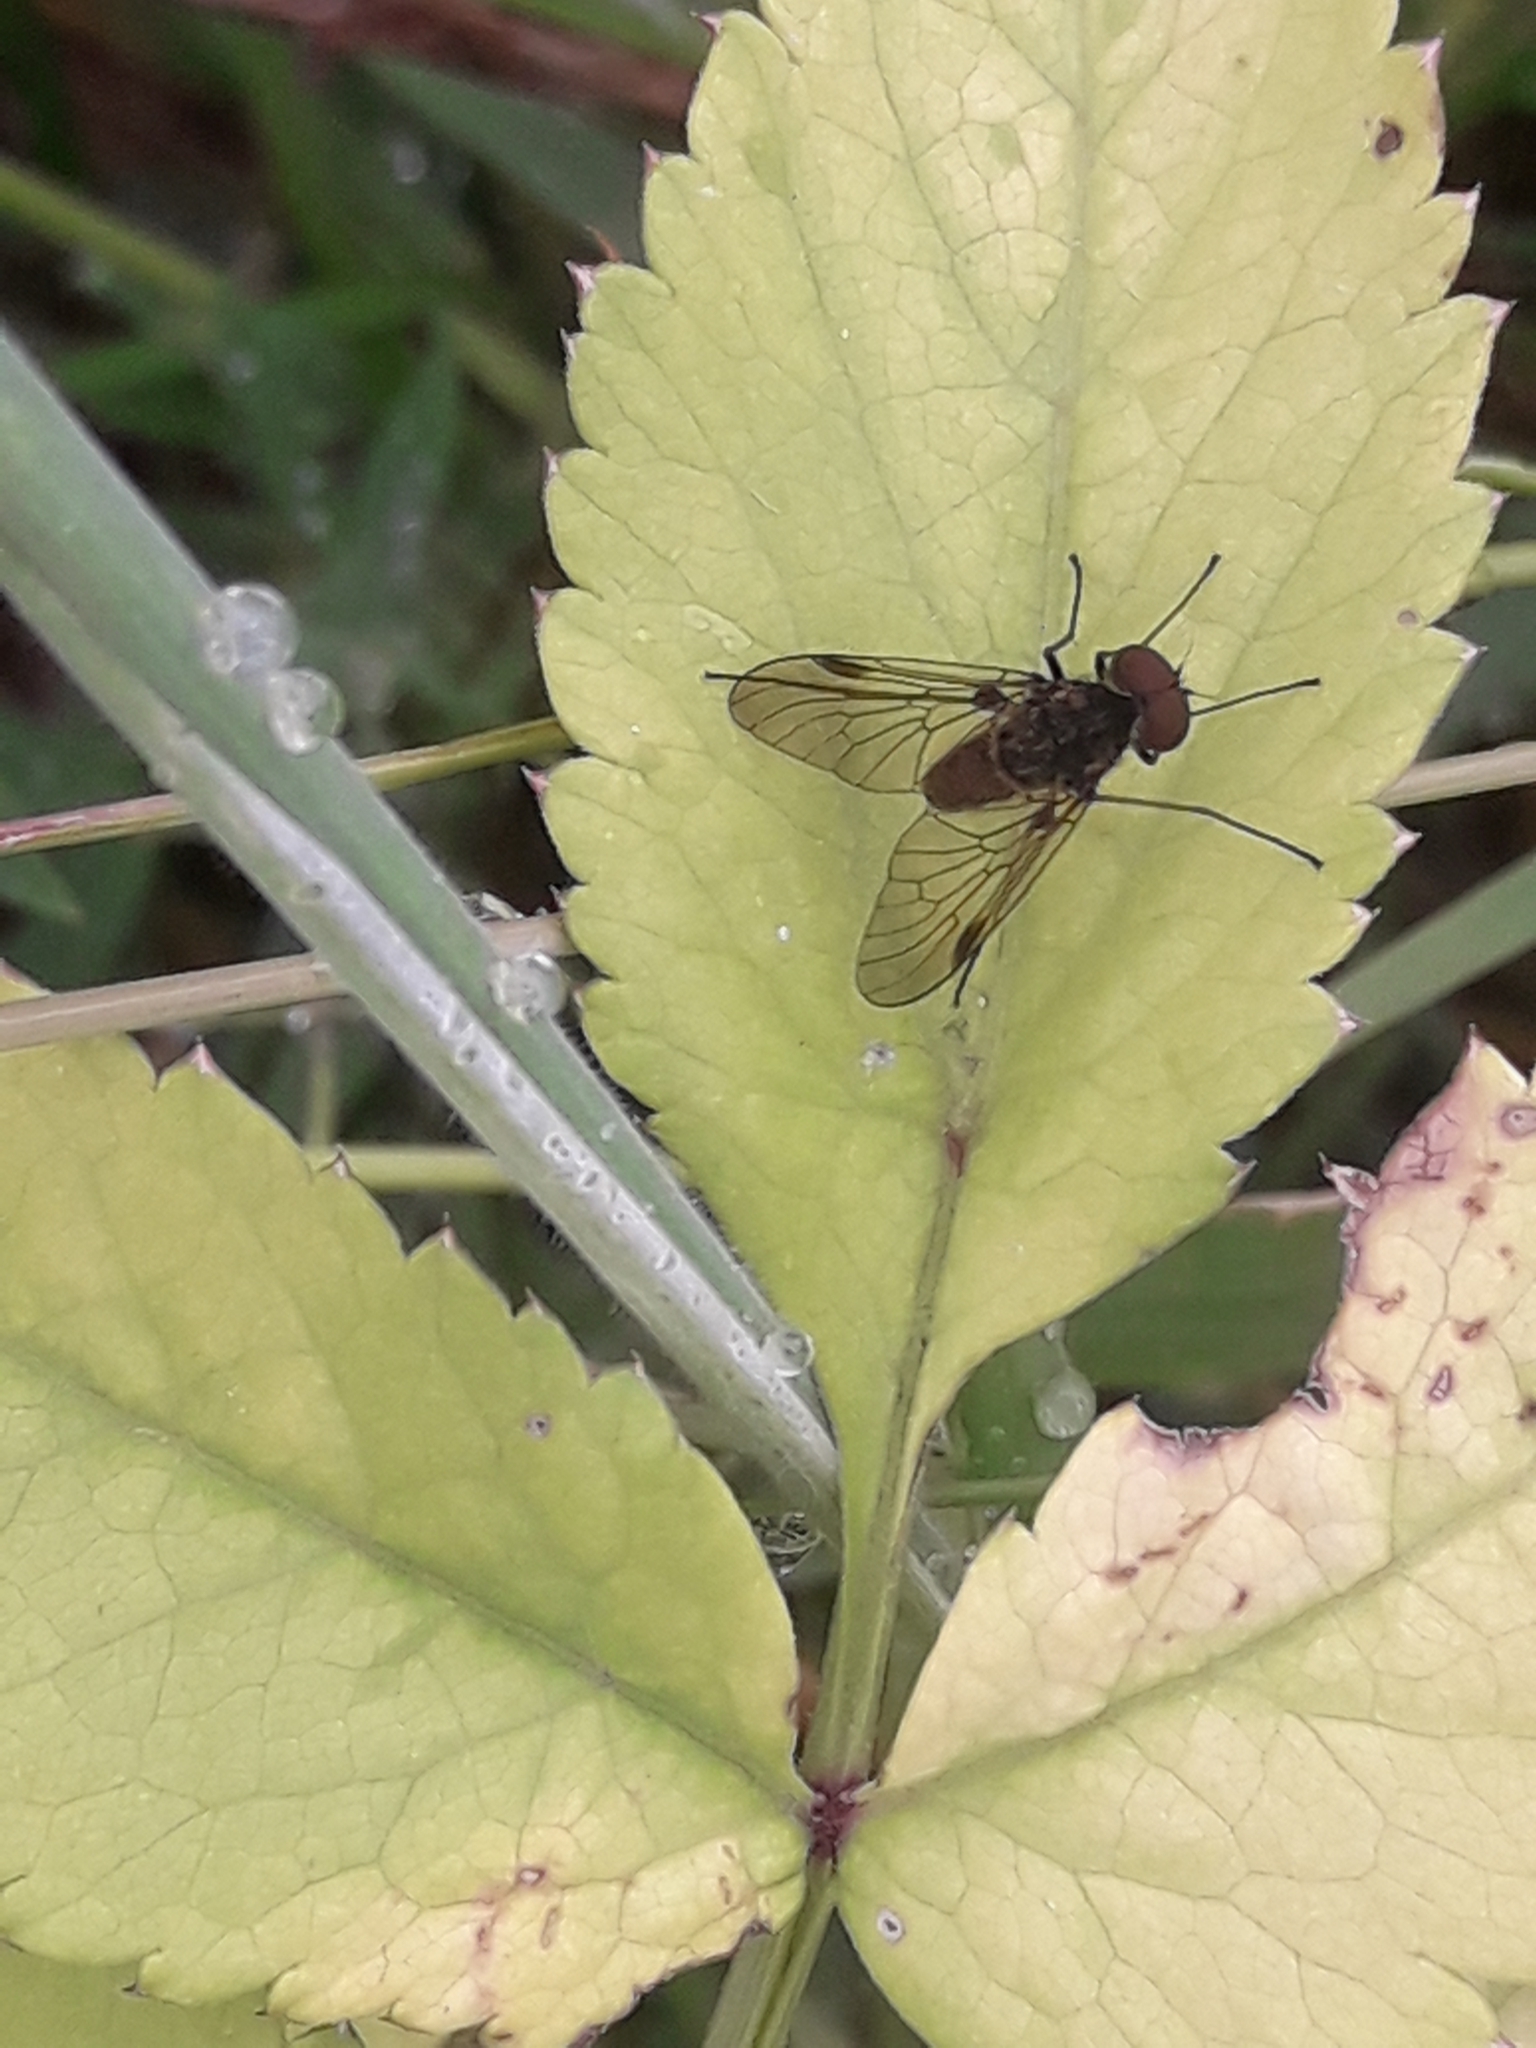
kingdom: Animalia
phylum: Arthropoda
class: Insecta
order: Diptera
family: Rhagionidae
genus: Chrysopilus
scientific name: Chrysopilus cristatus
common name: Black snipefly
